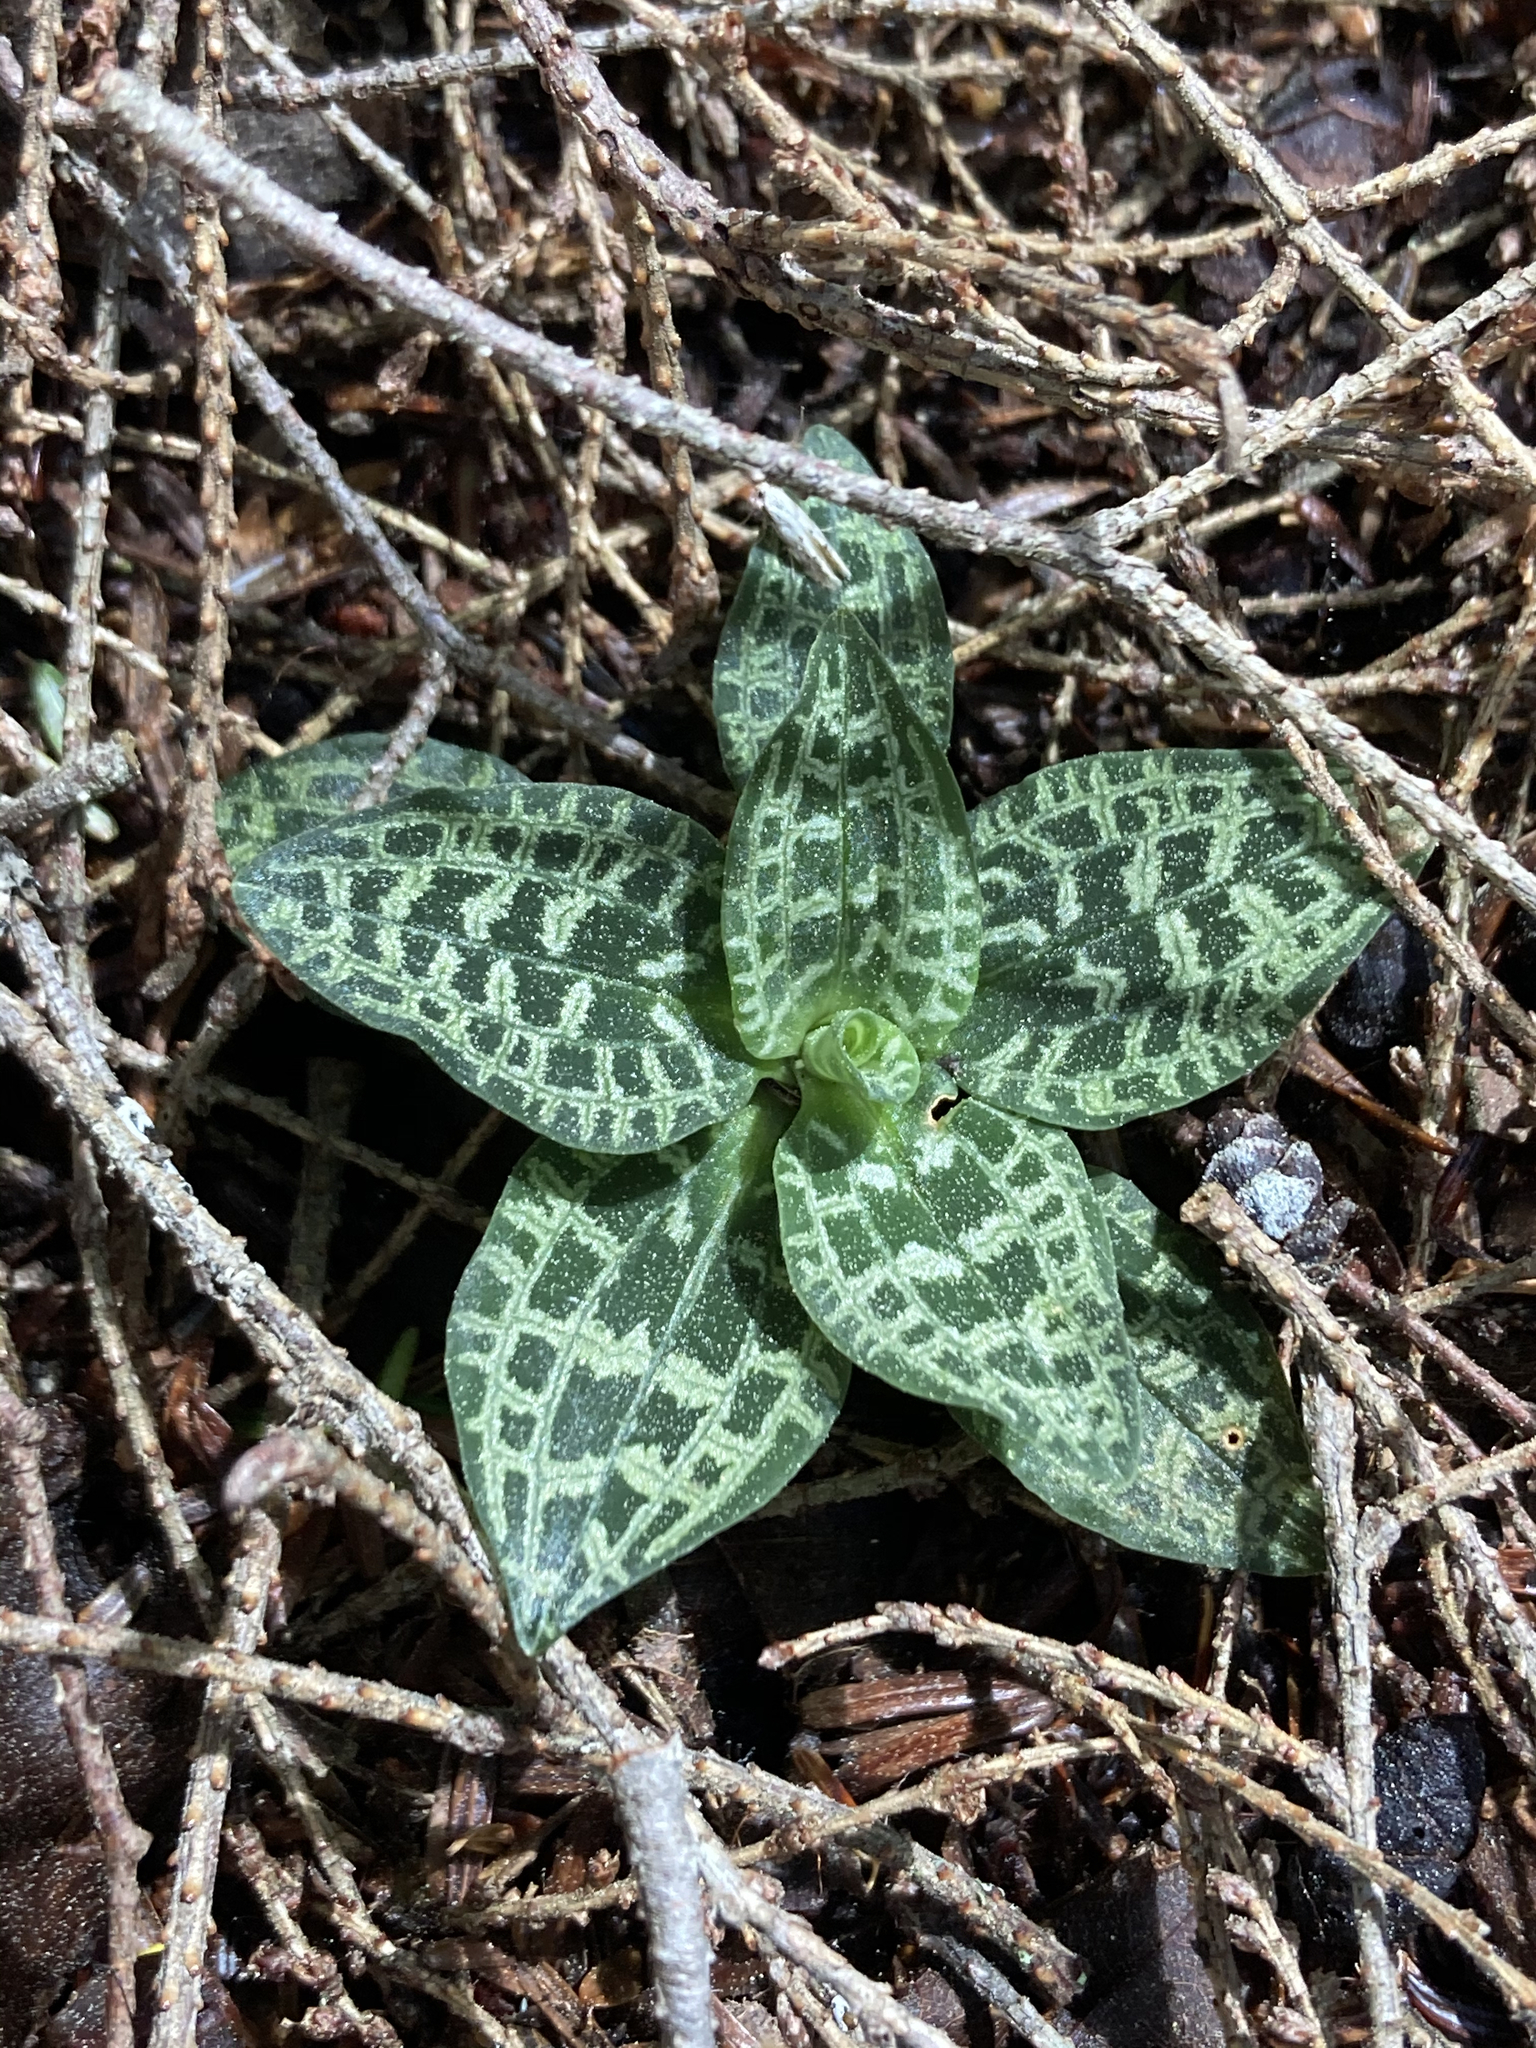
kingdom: Plantae
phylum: Tracheophyta
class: Liliopsida
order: Asparagales
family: Orchidaceae
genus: Goodyera
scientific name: Goodyera repens
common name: Creeping lady's-tresses
